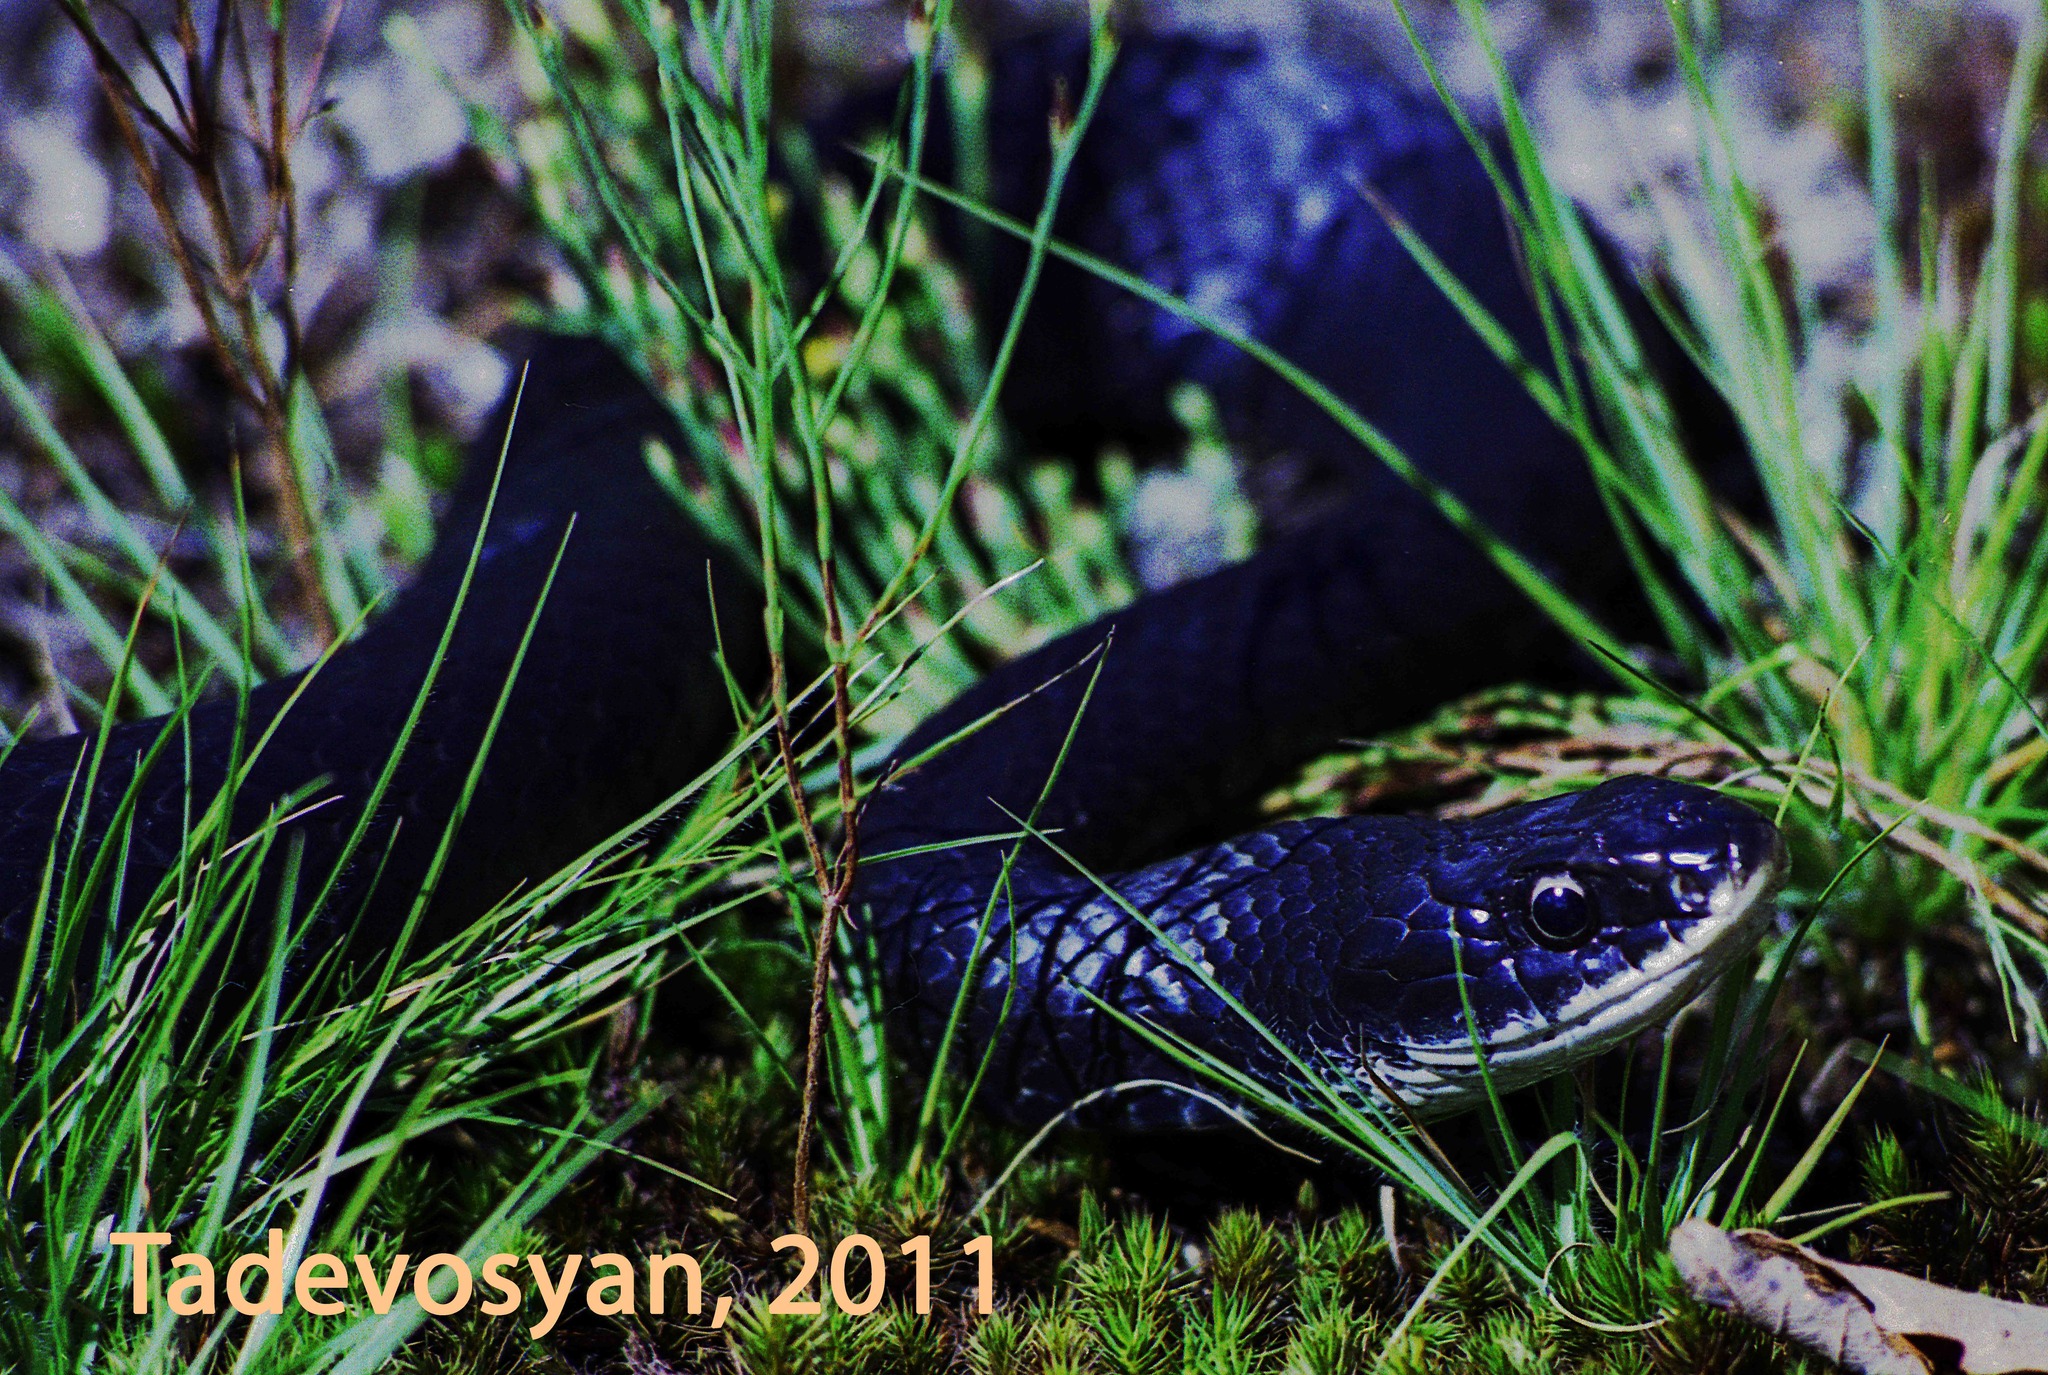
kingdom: Animalia
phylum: Chordata
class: Squamata
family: Colubridae
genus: Coluber
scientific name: Coluber constrictor
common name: Eastern racer
